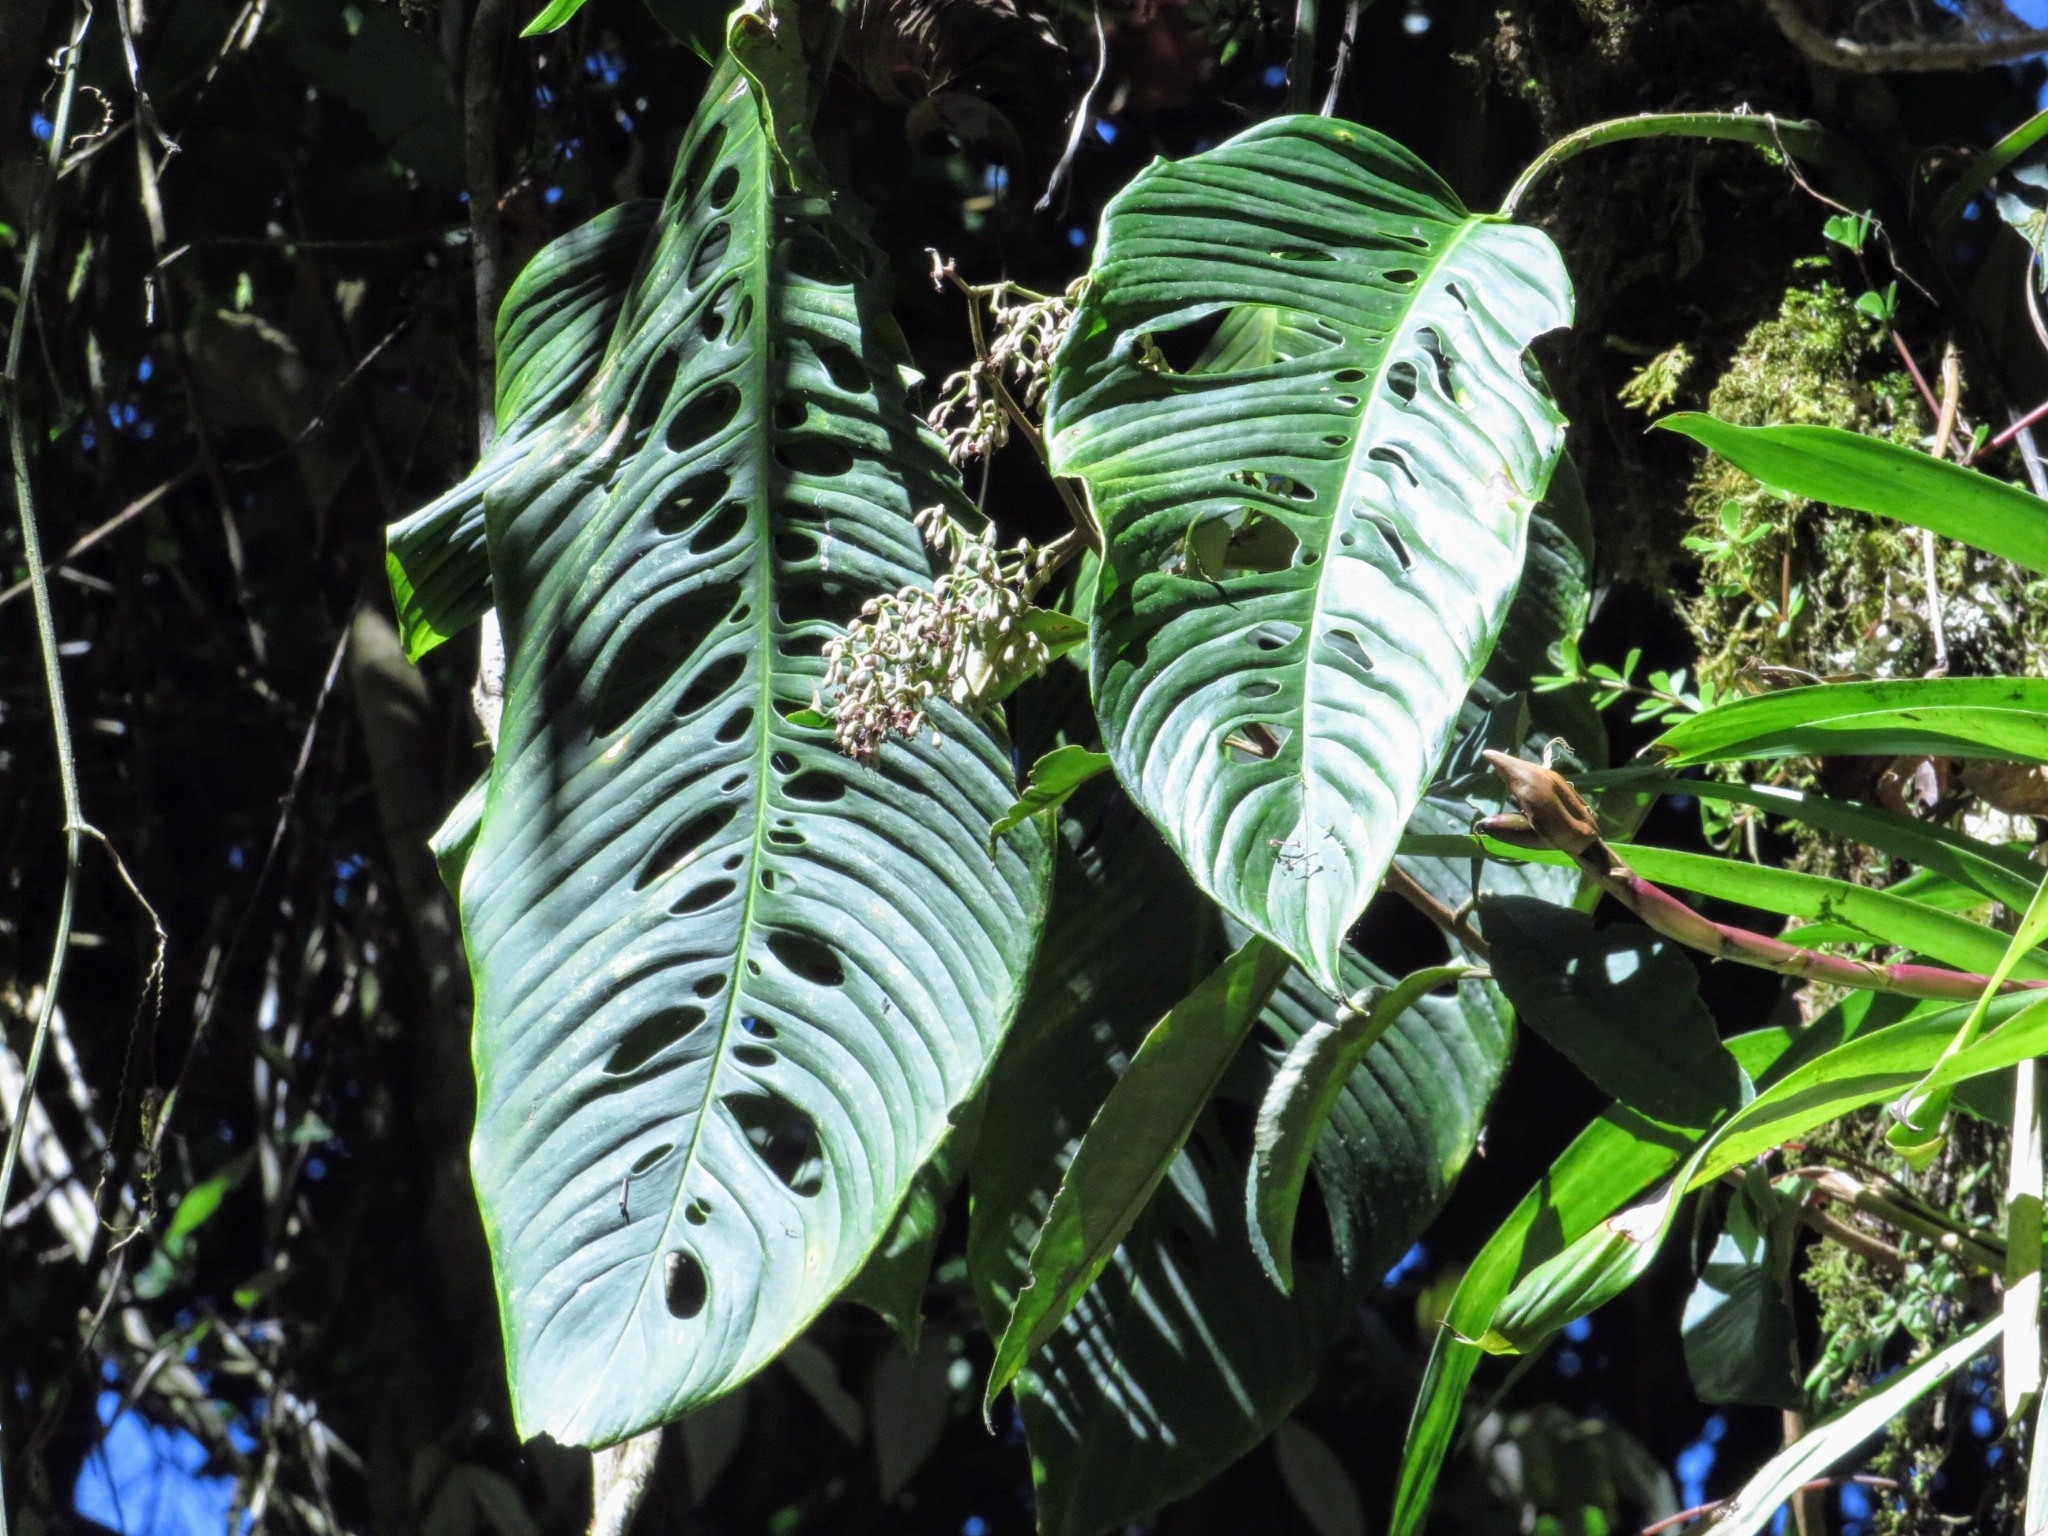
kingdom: Plantae
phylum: Tracheophyta
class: Liliopsida
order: Alismatales
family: Araceae
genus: Monstera
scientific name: Monstera oreophila
